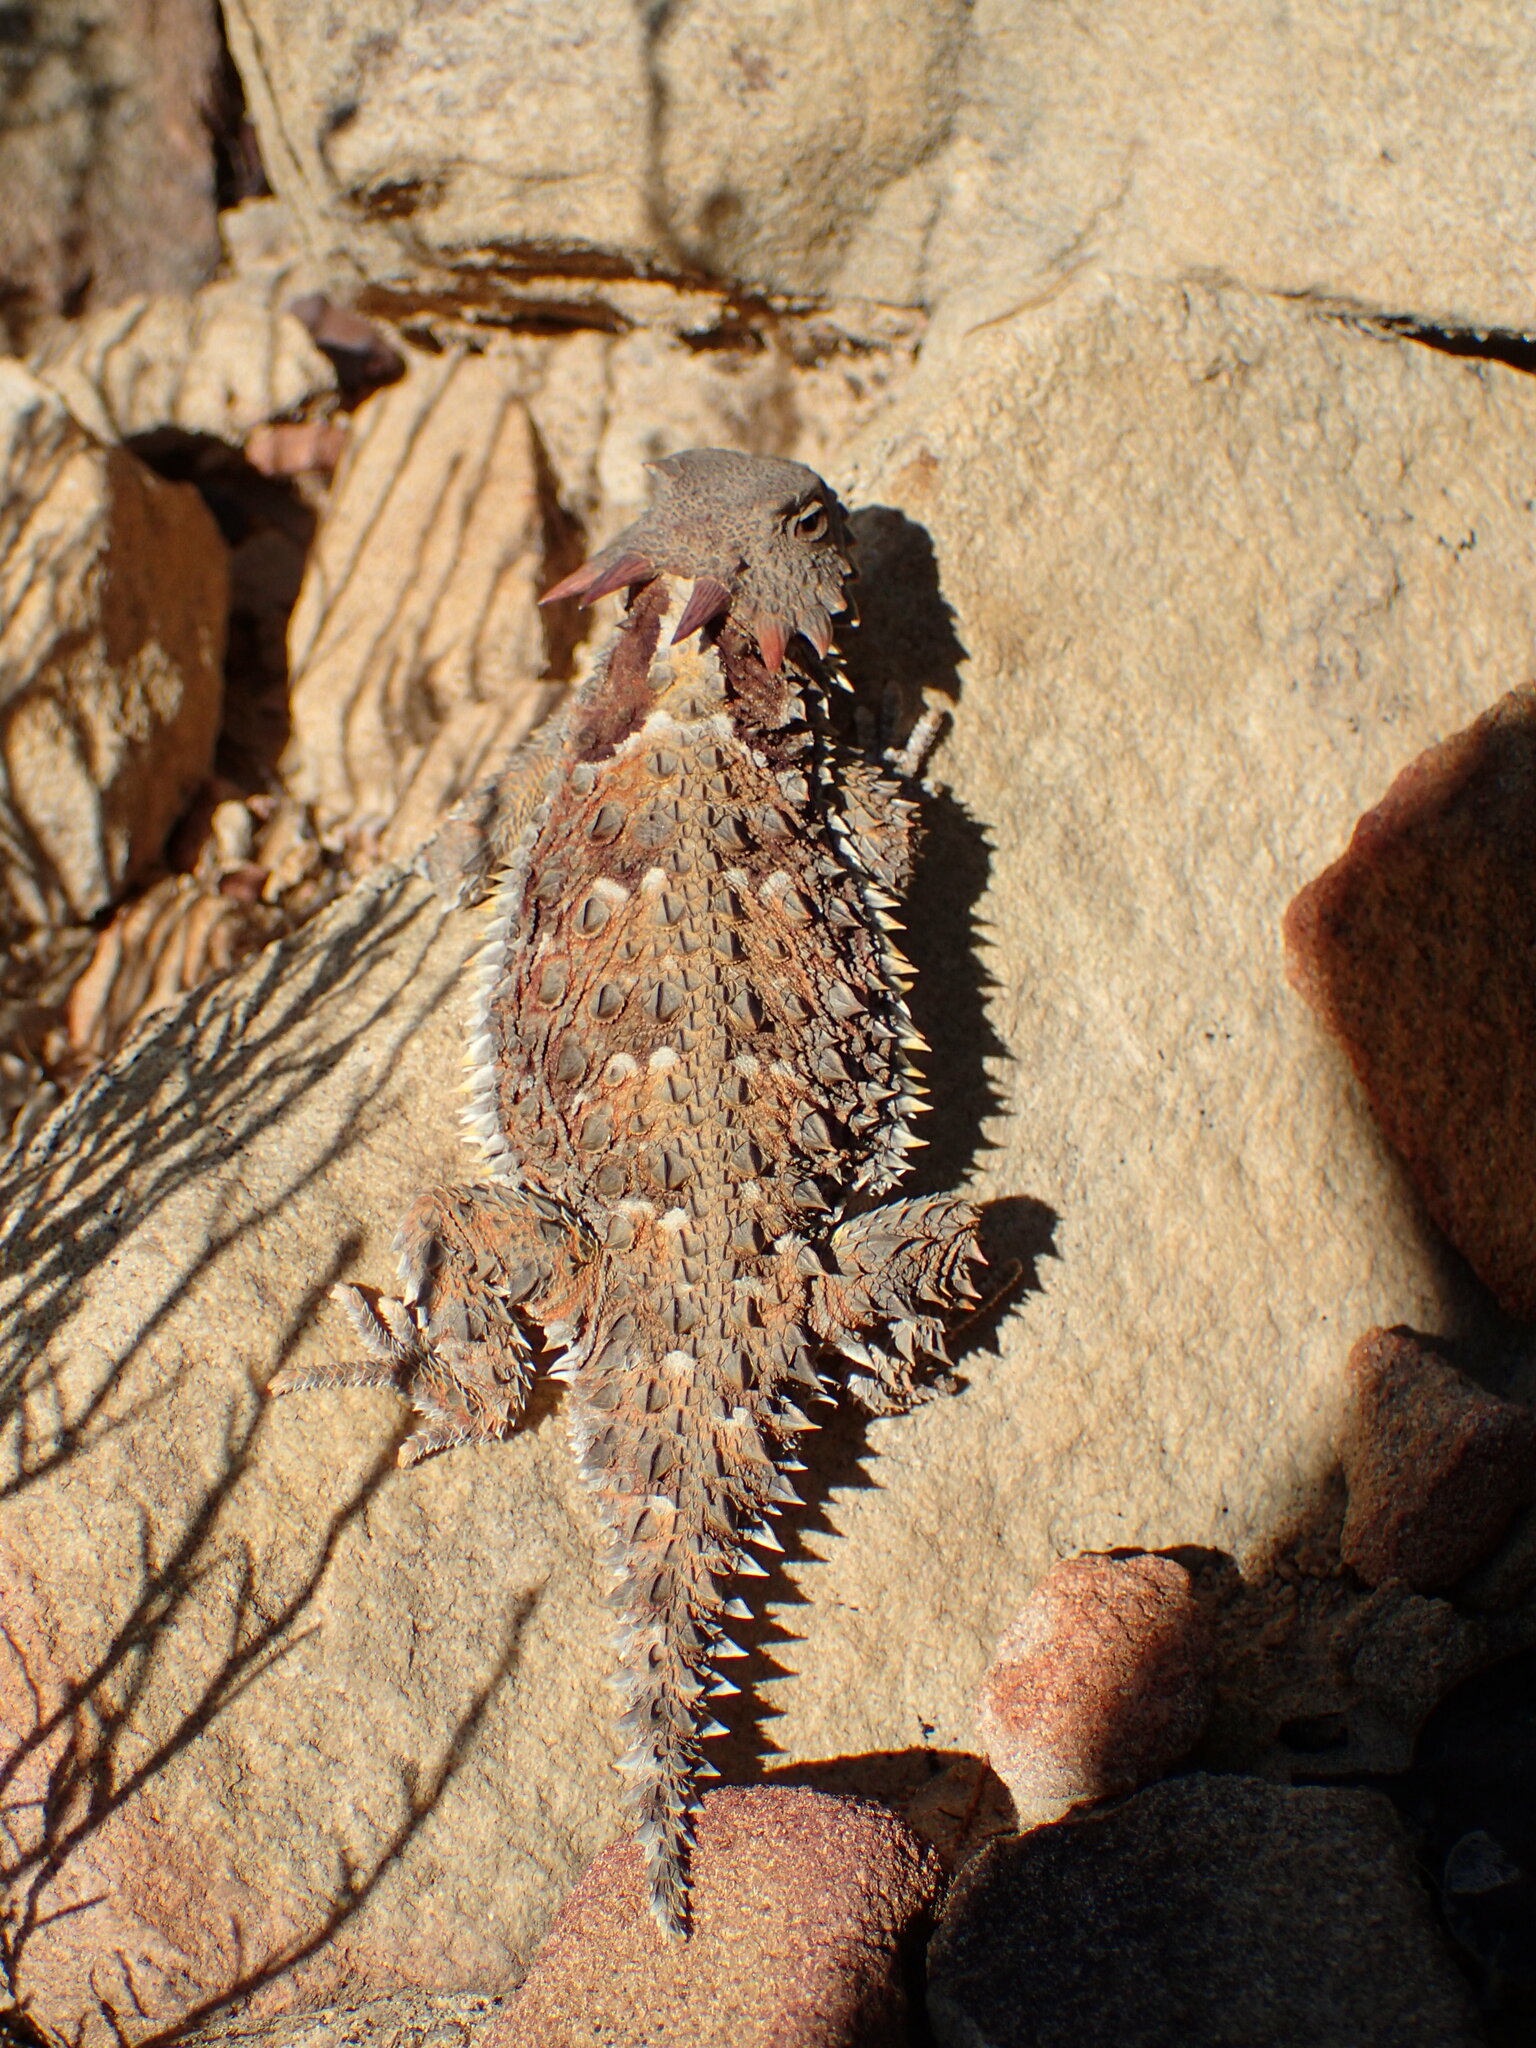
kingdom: Animalia
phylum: Chordata
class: Squamata
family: Phrynosomatidae
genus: Phrynosoma
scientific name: Phrynosoma blainvillii
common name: San diego horned lizard
